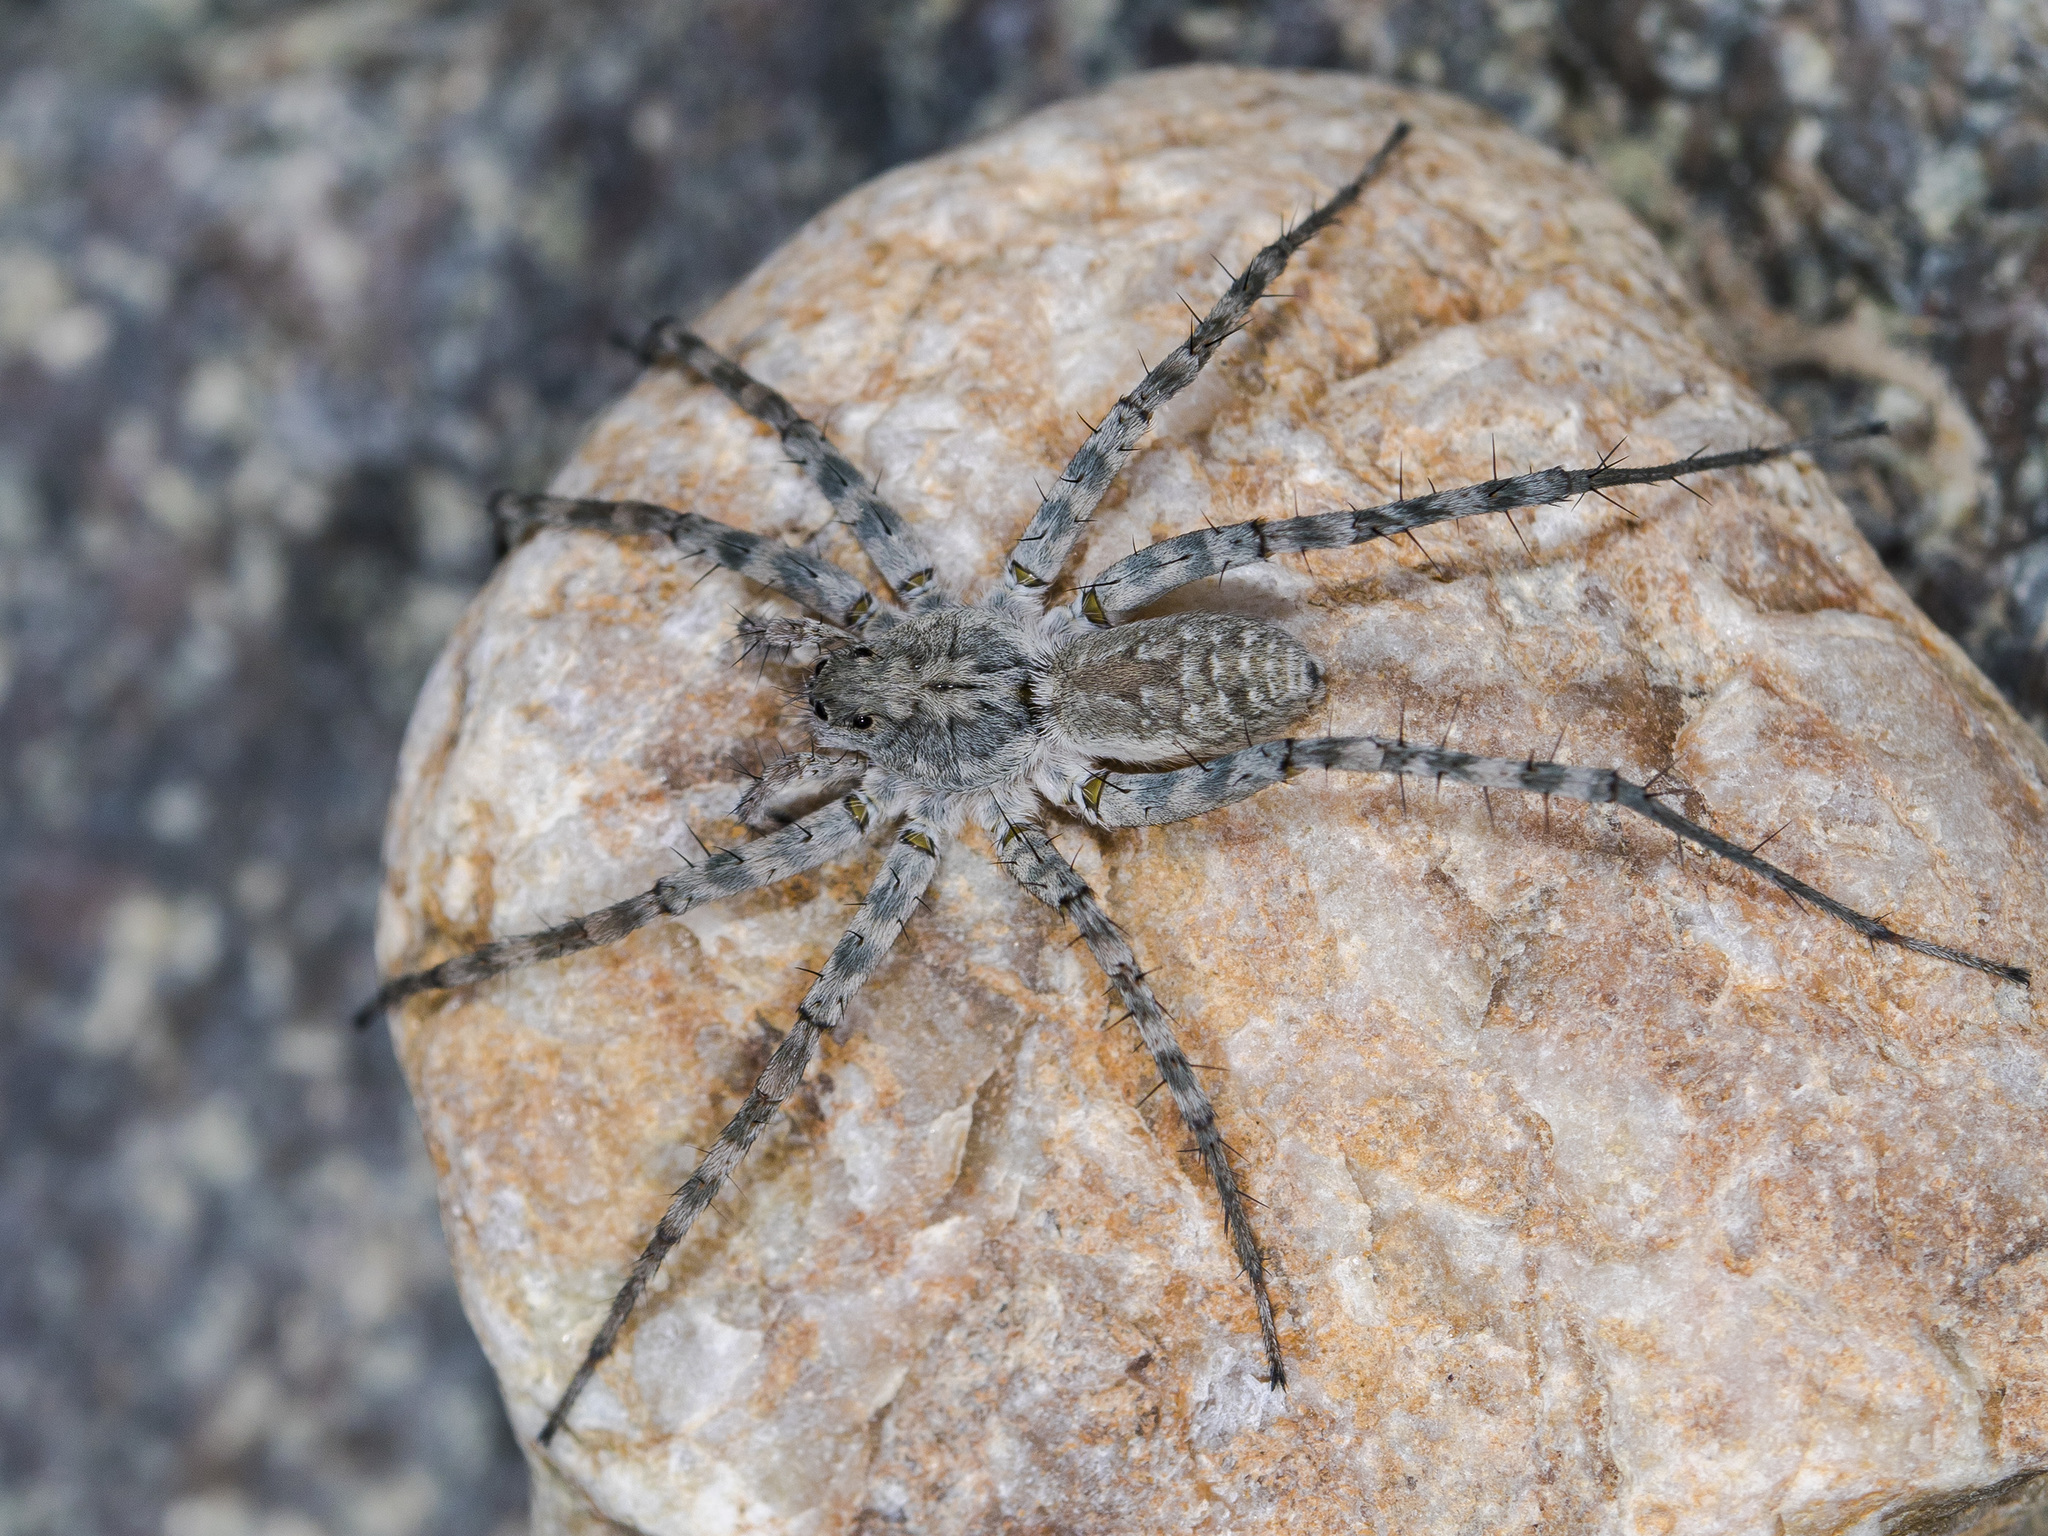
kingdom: Animalia
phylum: Arthropoda
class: Arachnida
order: Araneae
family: Lycosidae
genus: Pardosa
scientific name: Pardosa falcata
